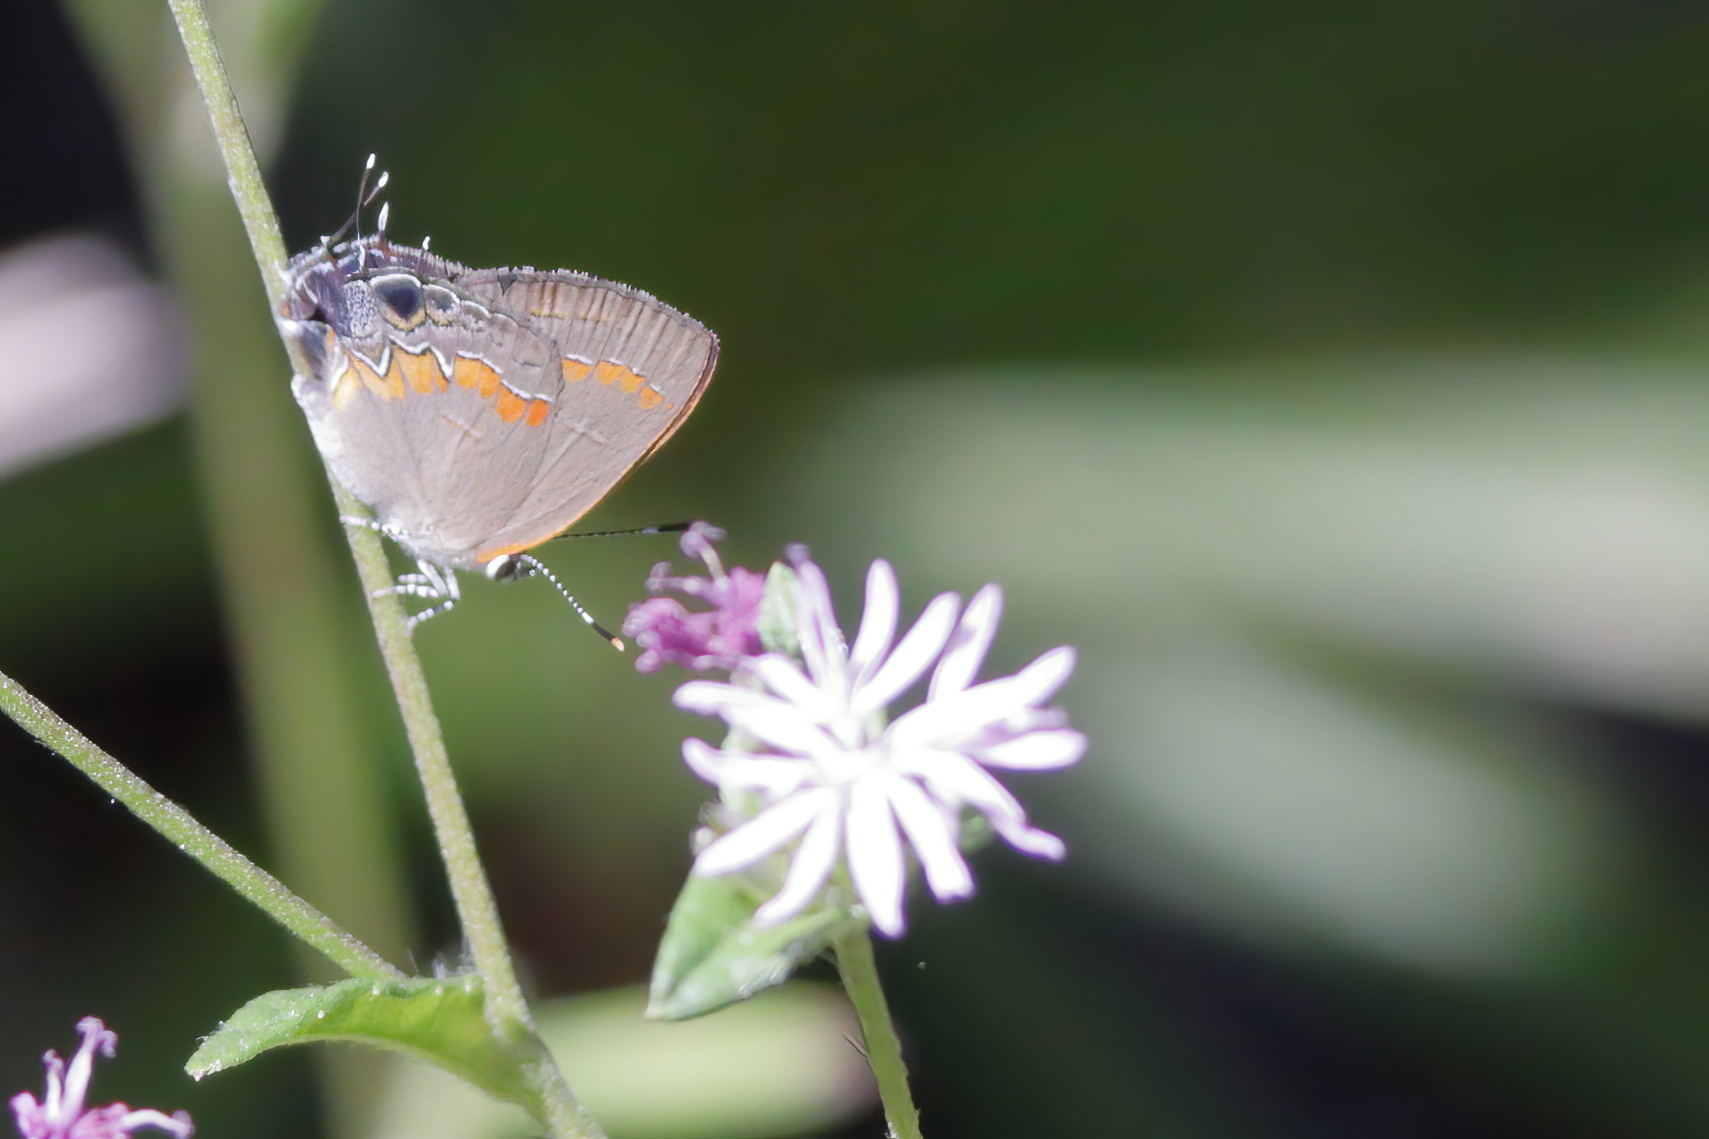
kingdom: Animalia
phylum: Arthropoda
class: Insecta
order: Lepidoptera
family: Lycaenidae
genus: Calycopis
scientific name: Calycopis cecrops
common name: Red-banded hairstreak
